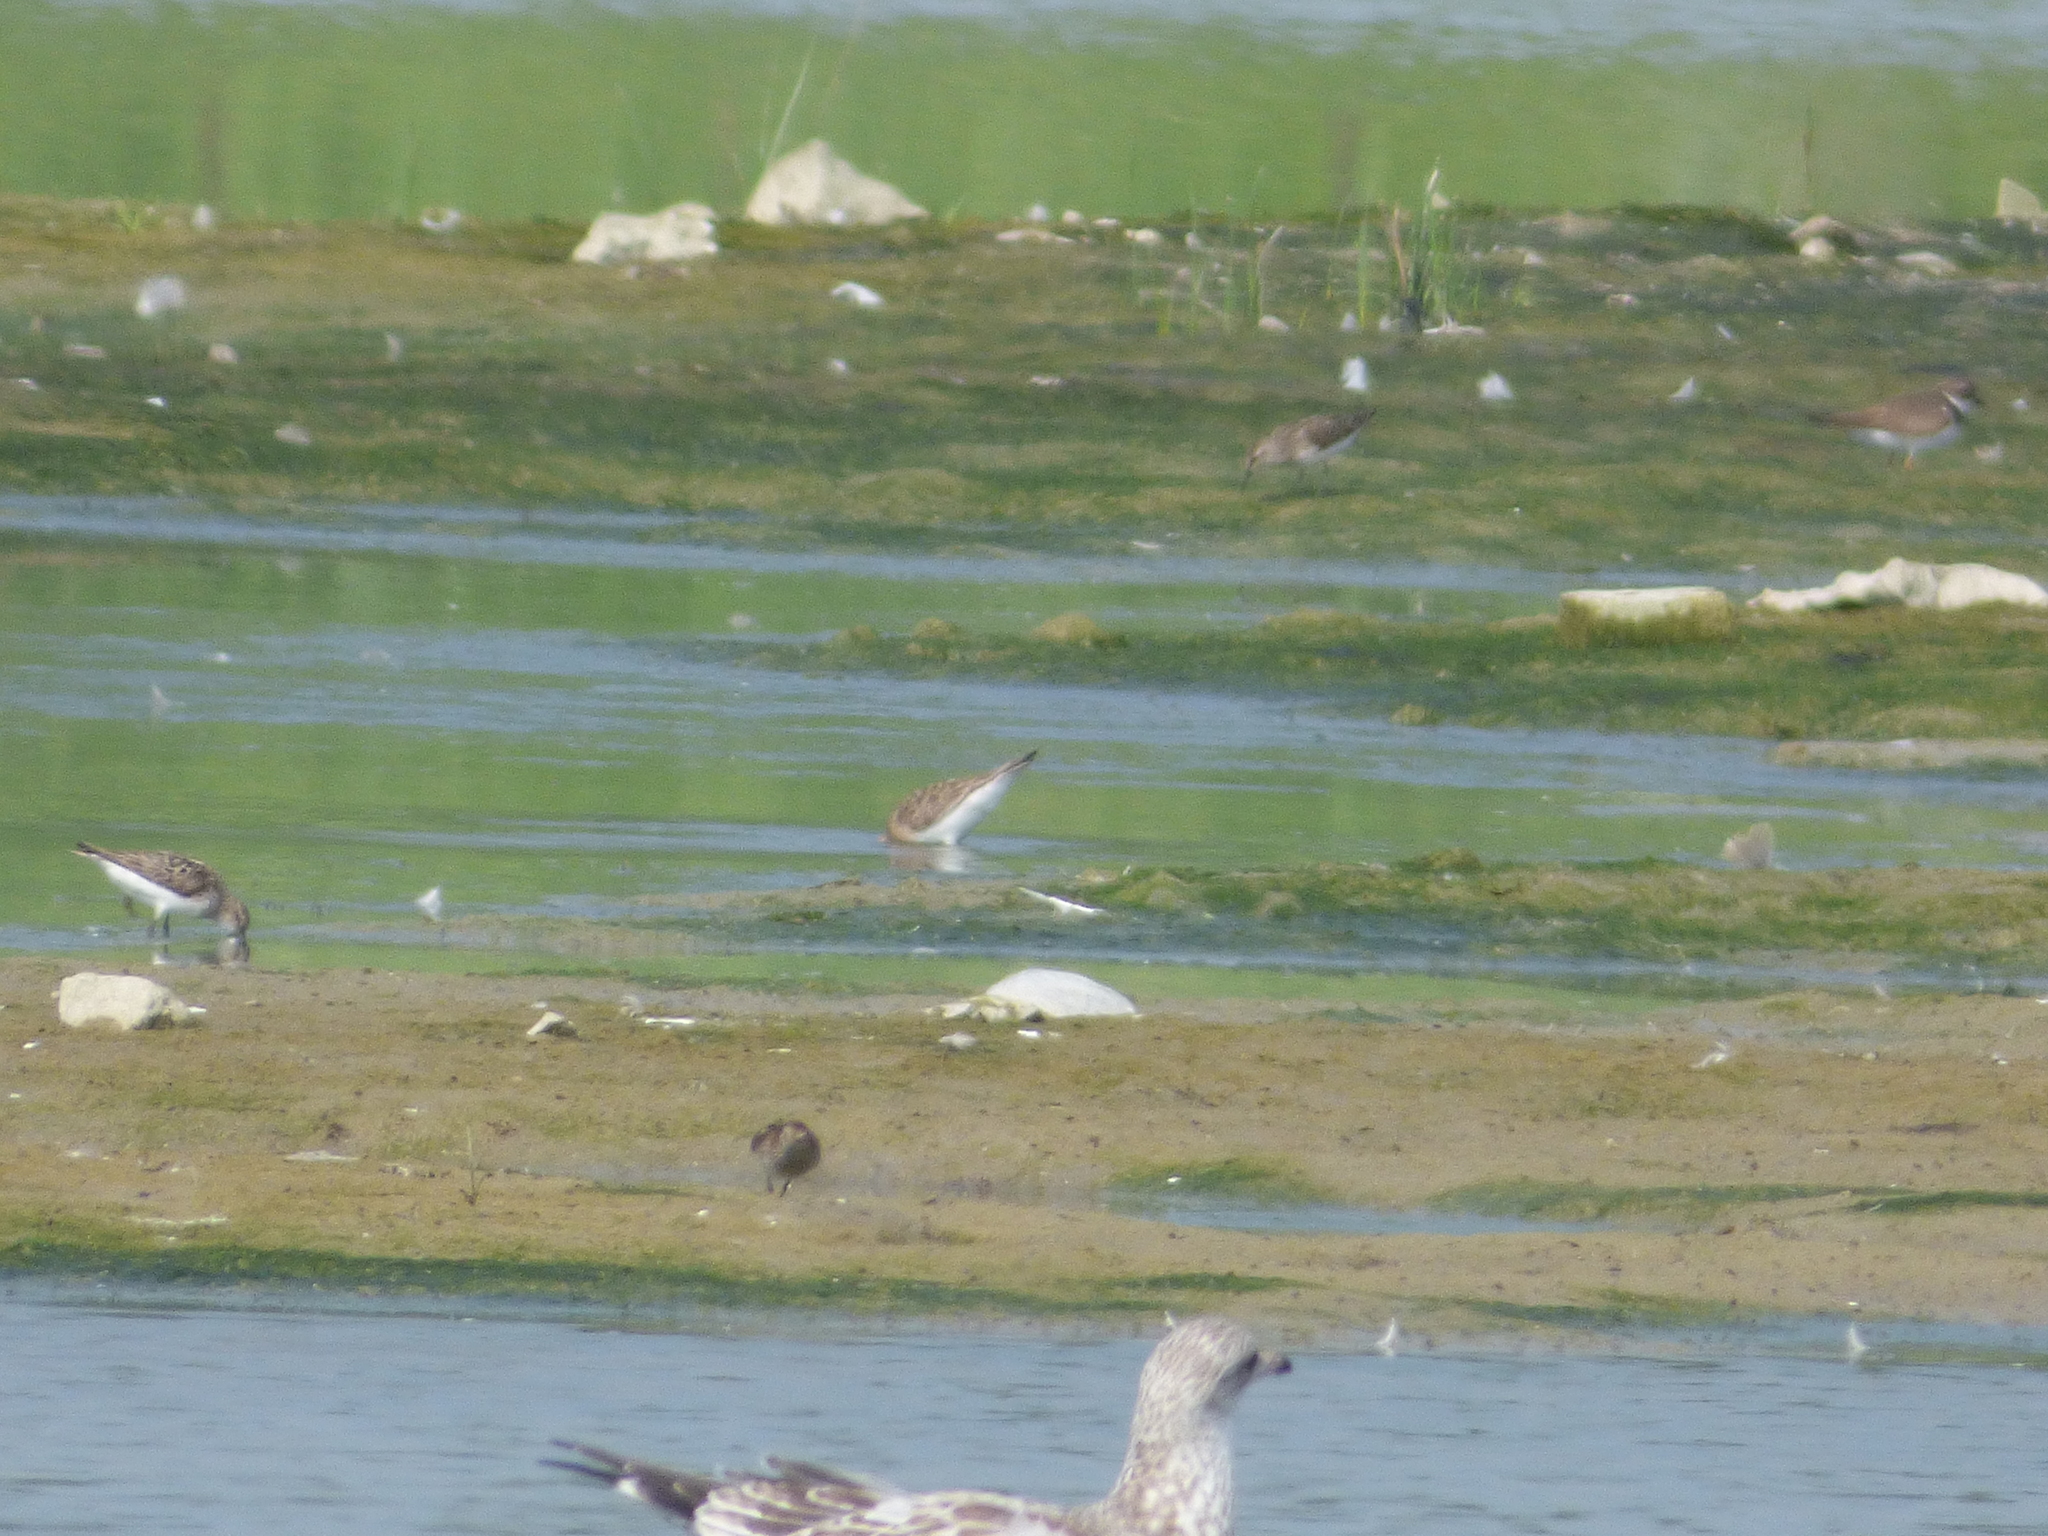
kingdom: Animalia
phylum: Chordata
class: Aves
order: Charadriiformes
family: Scolopacidae
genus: Calidris
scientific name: Calidris pusilla
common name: Semipalmated sandpiper
